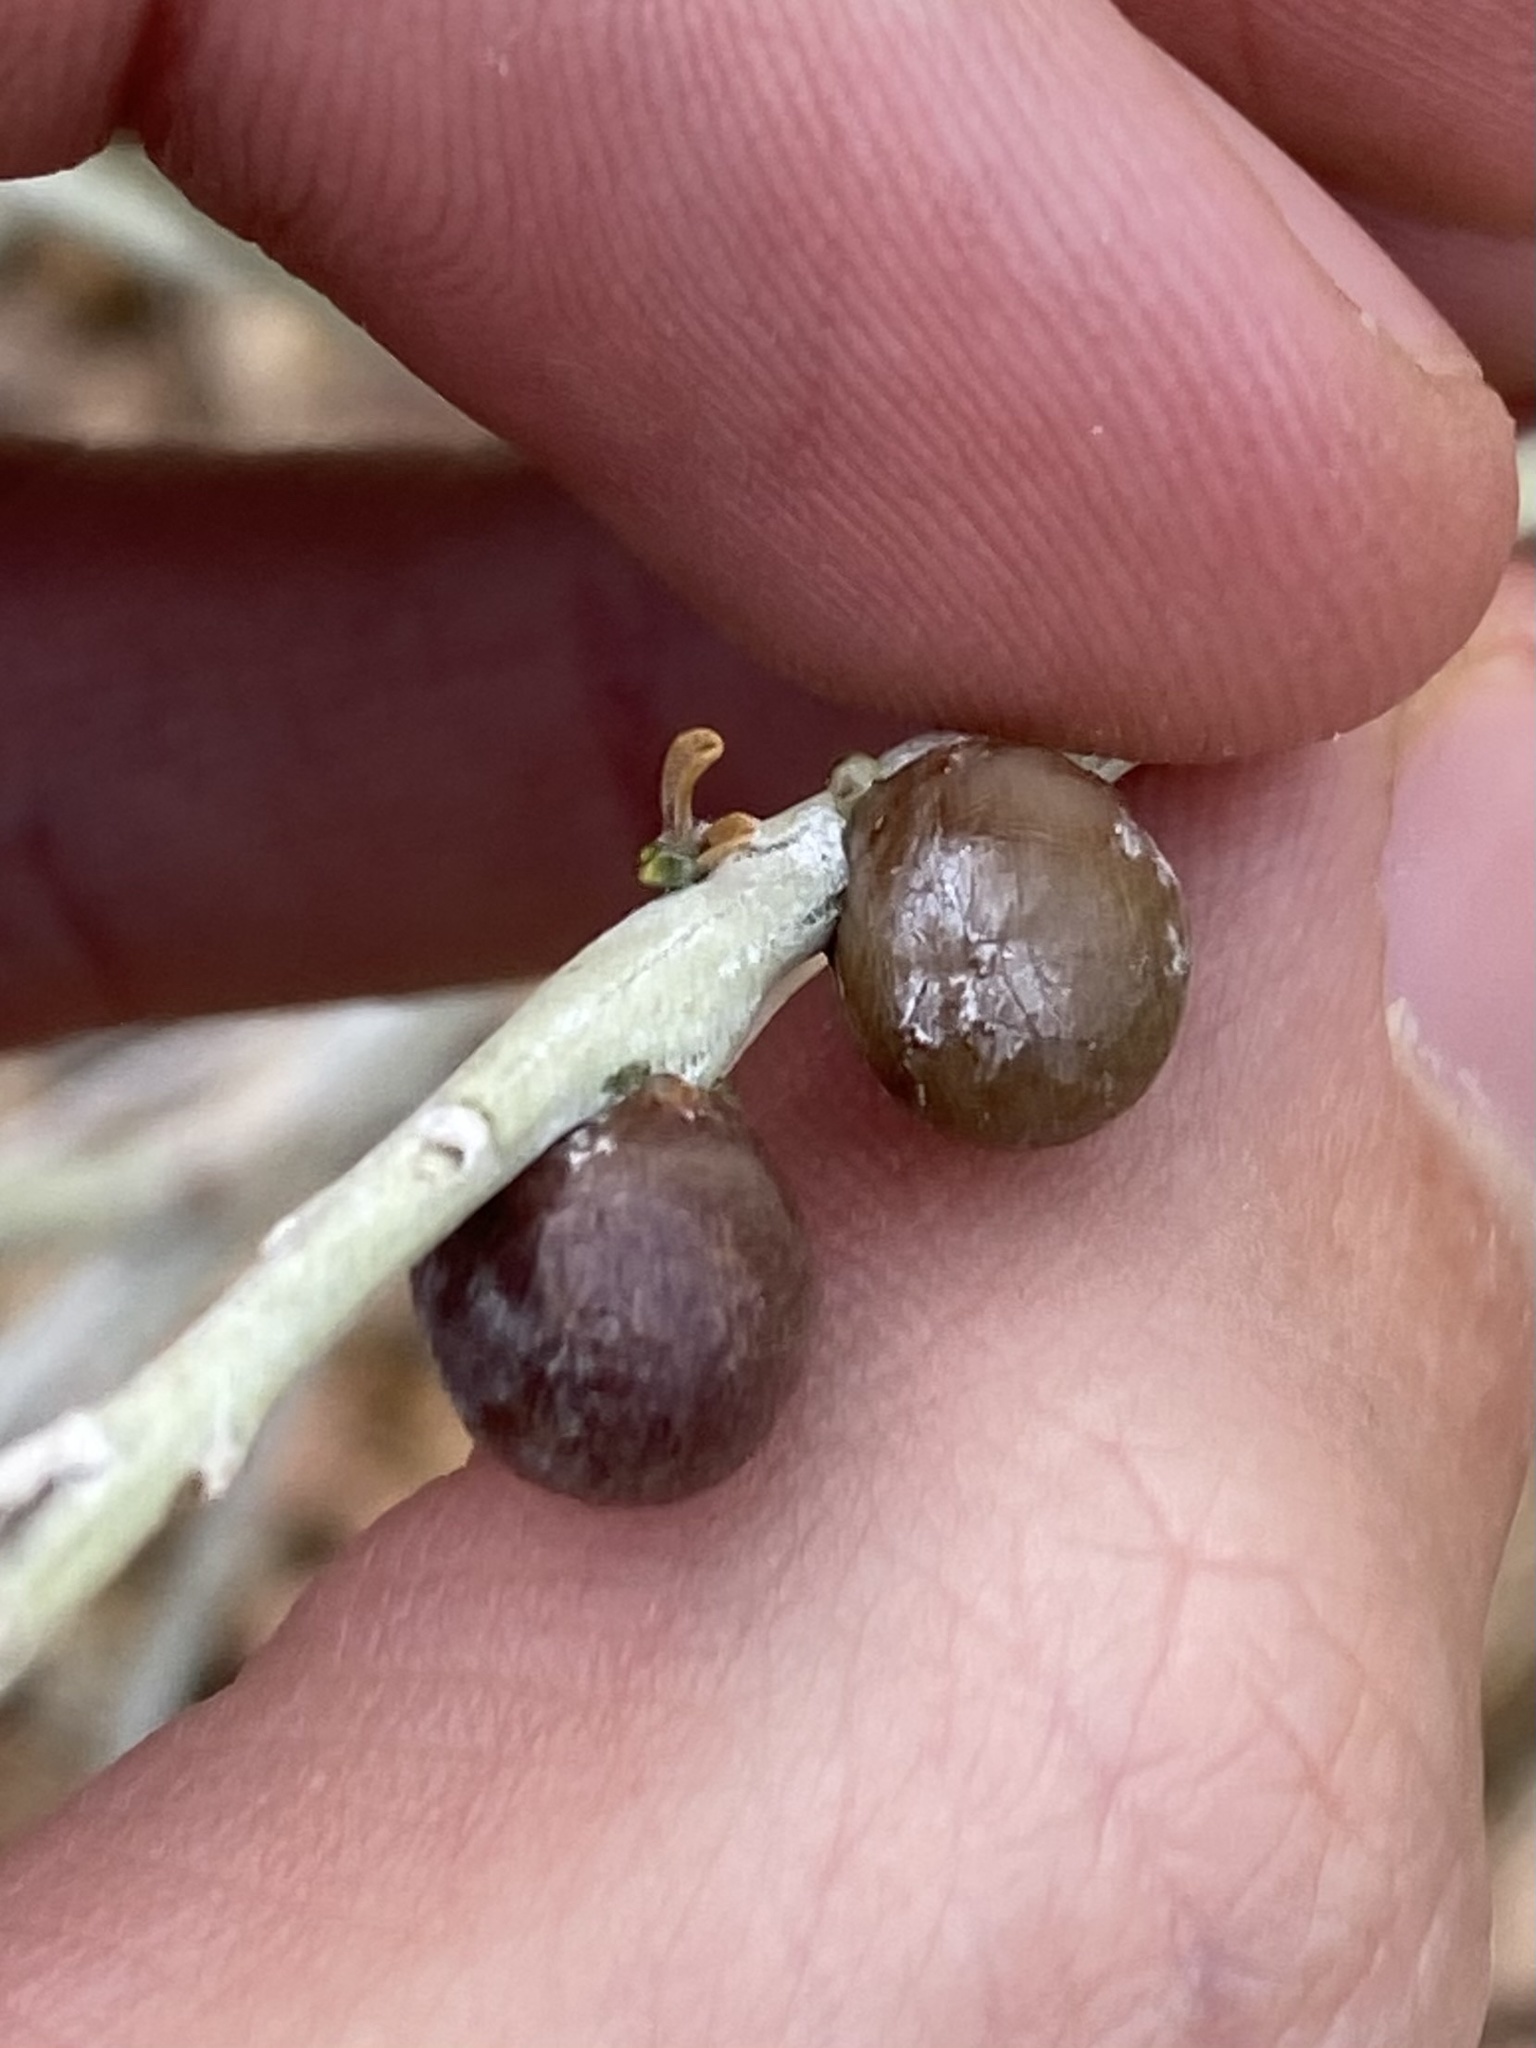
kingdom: Animalia
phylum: Arthropoda
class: Insecta
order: Diptera
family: Tephritidae
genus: Aciurina
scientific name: Aciurina trixa
